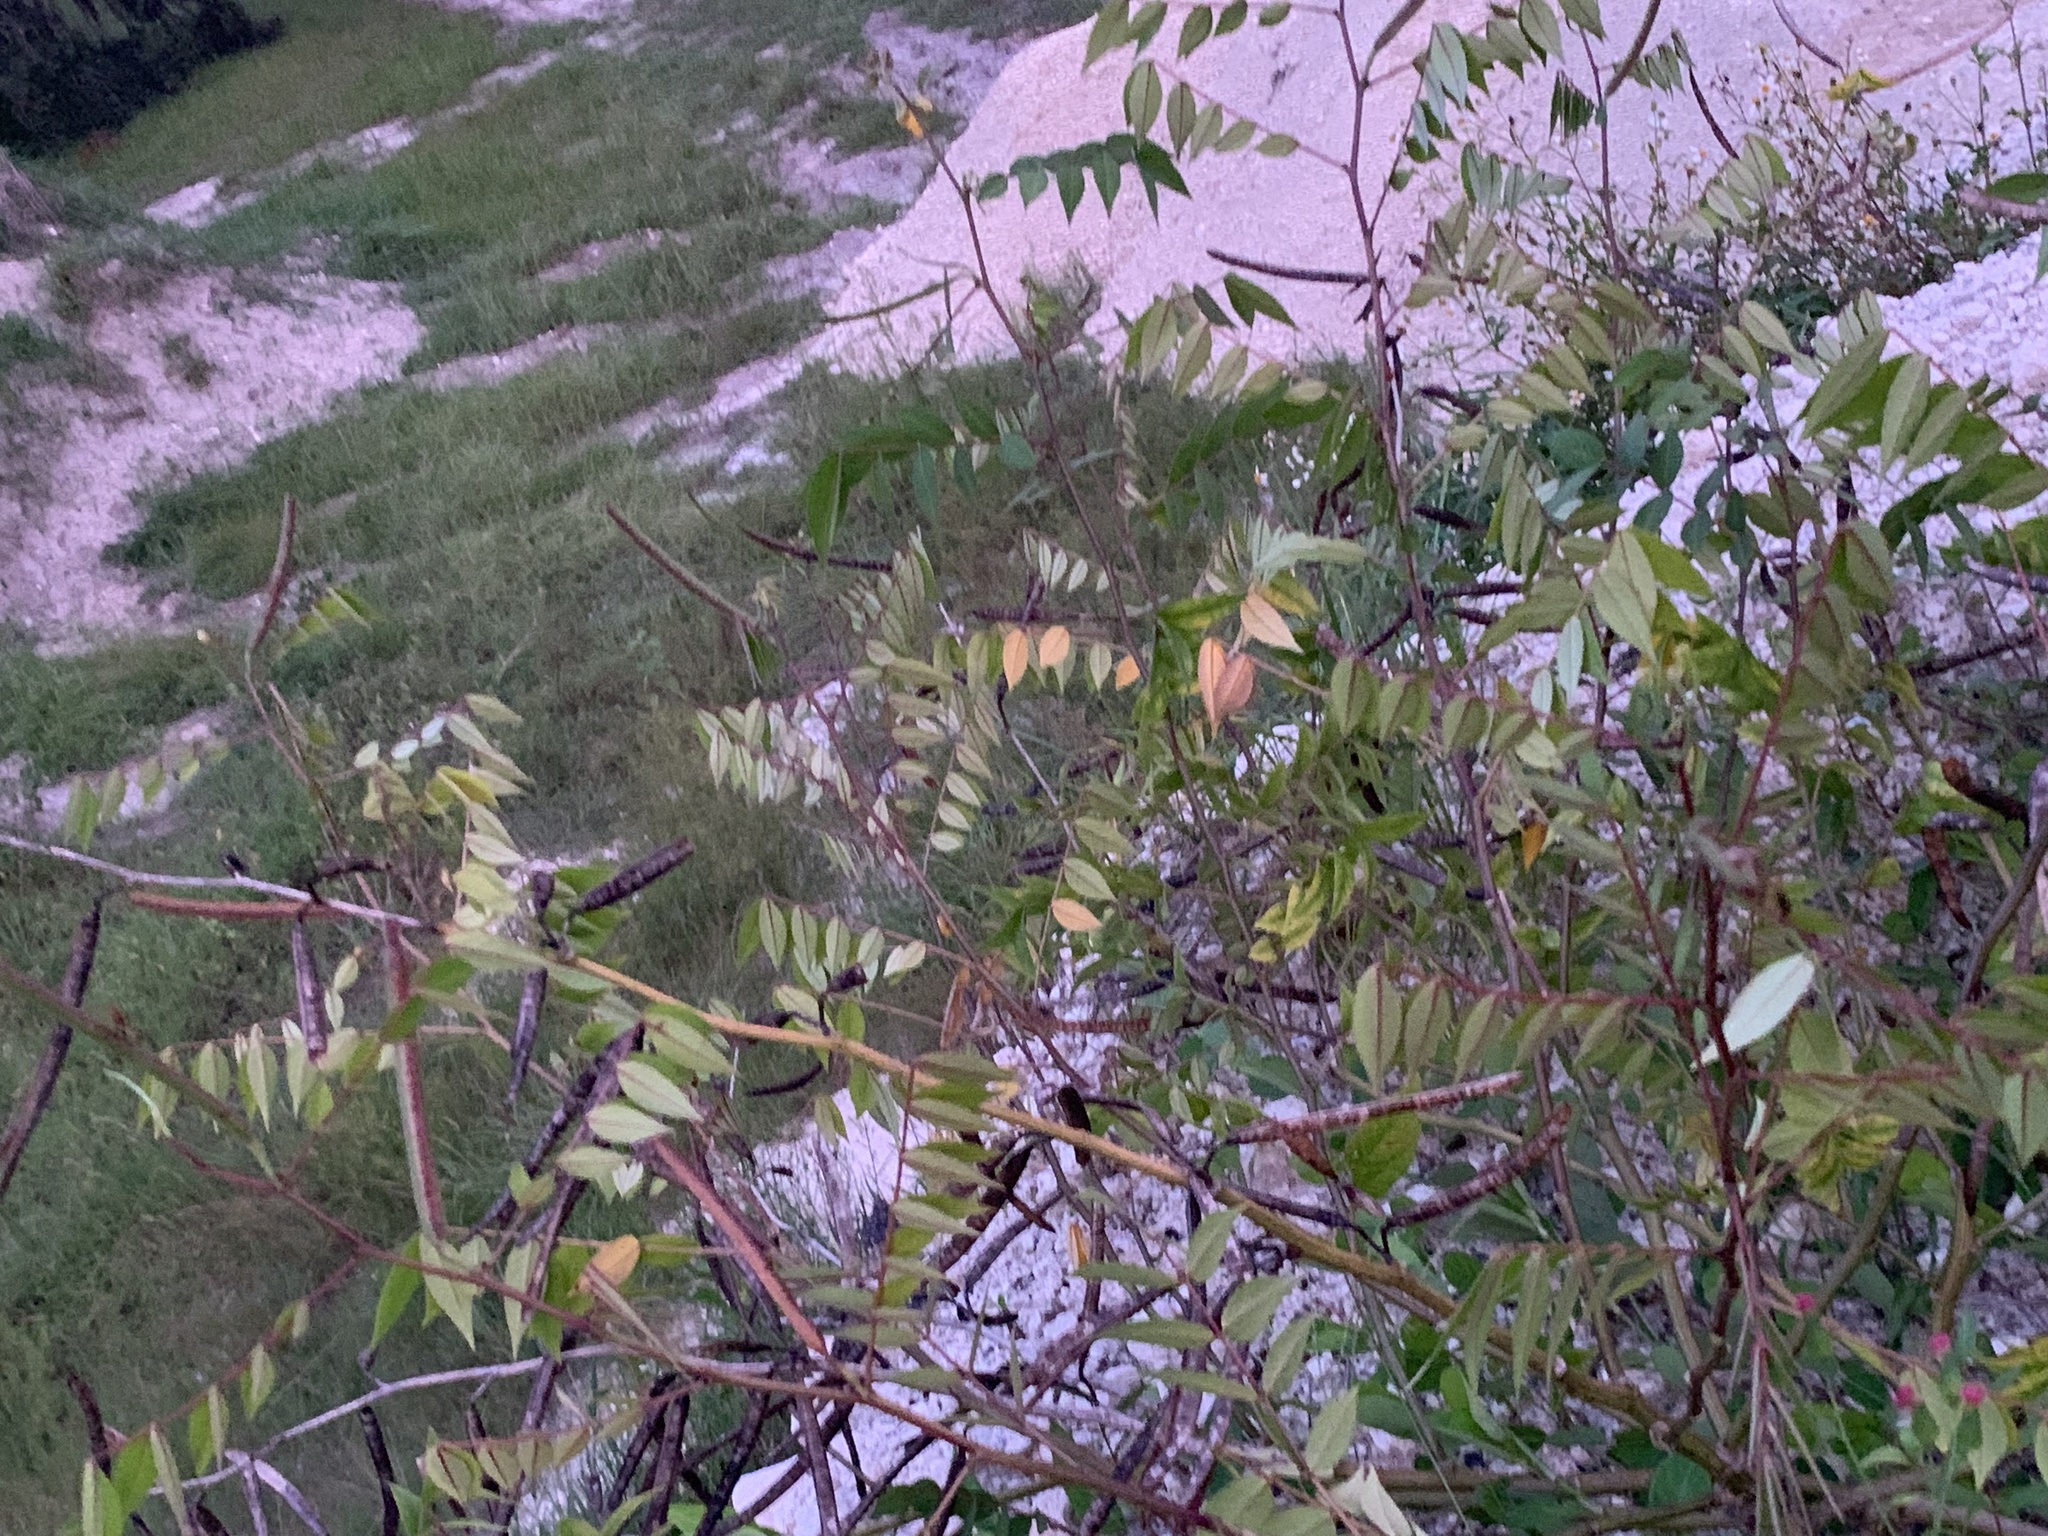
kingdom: Plantae
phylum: Tracheophyta
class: Magnoliopsida
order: Fabales
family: Fabaceae
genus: Senna
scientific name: Senna occidentalis
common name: Septicweed
